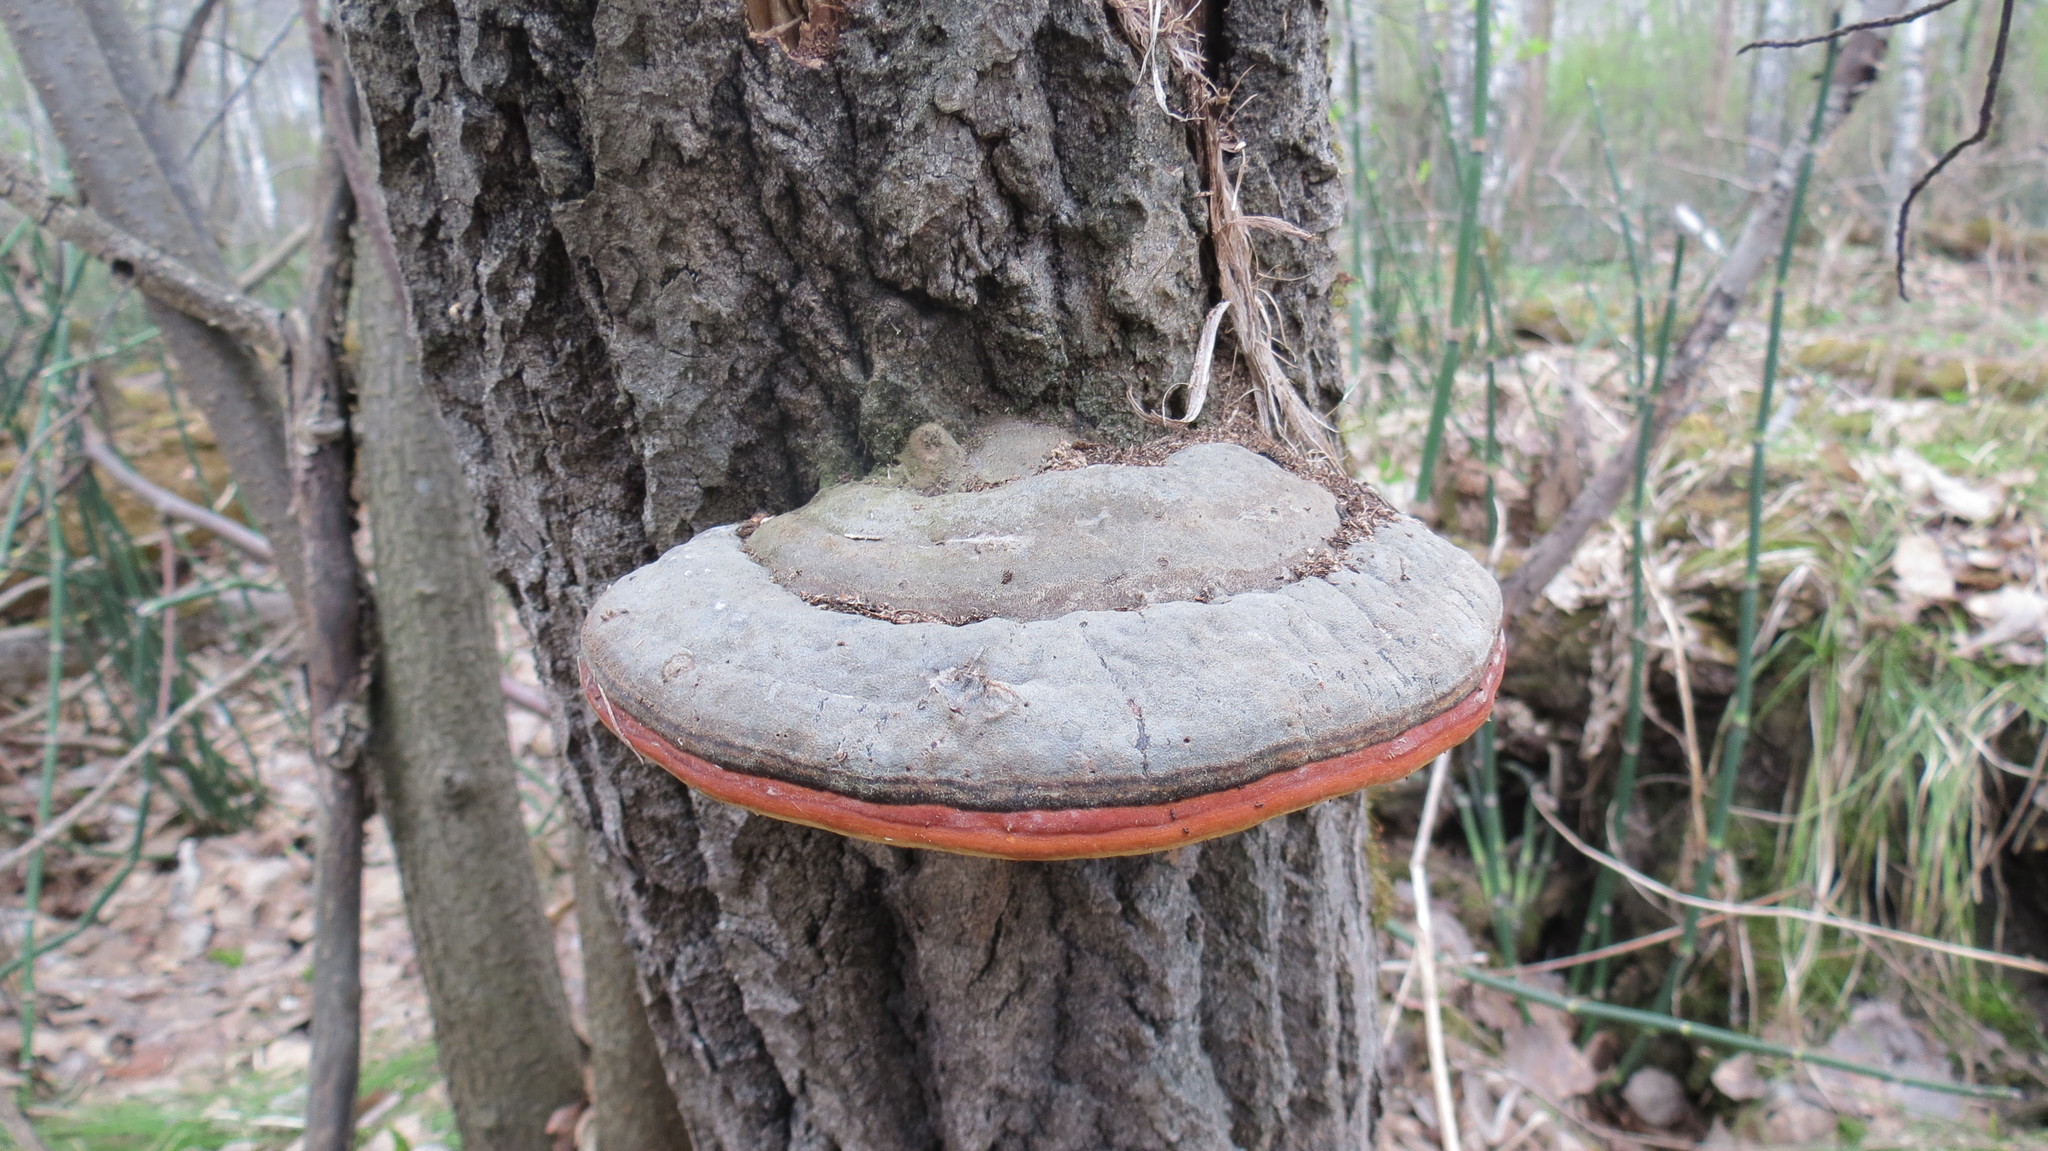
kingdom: Fungi
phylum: Basidiomycota
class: Agaricomycetes
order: Polyporales
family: Fomitopsidaceae
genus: Fomitopsis
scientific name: Fomitopsis pinicola
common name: Red-belted bracket
